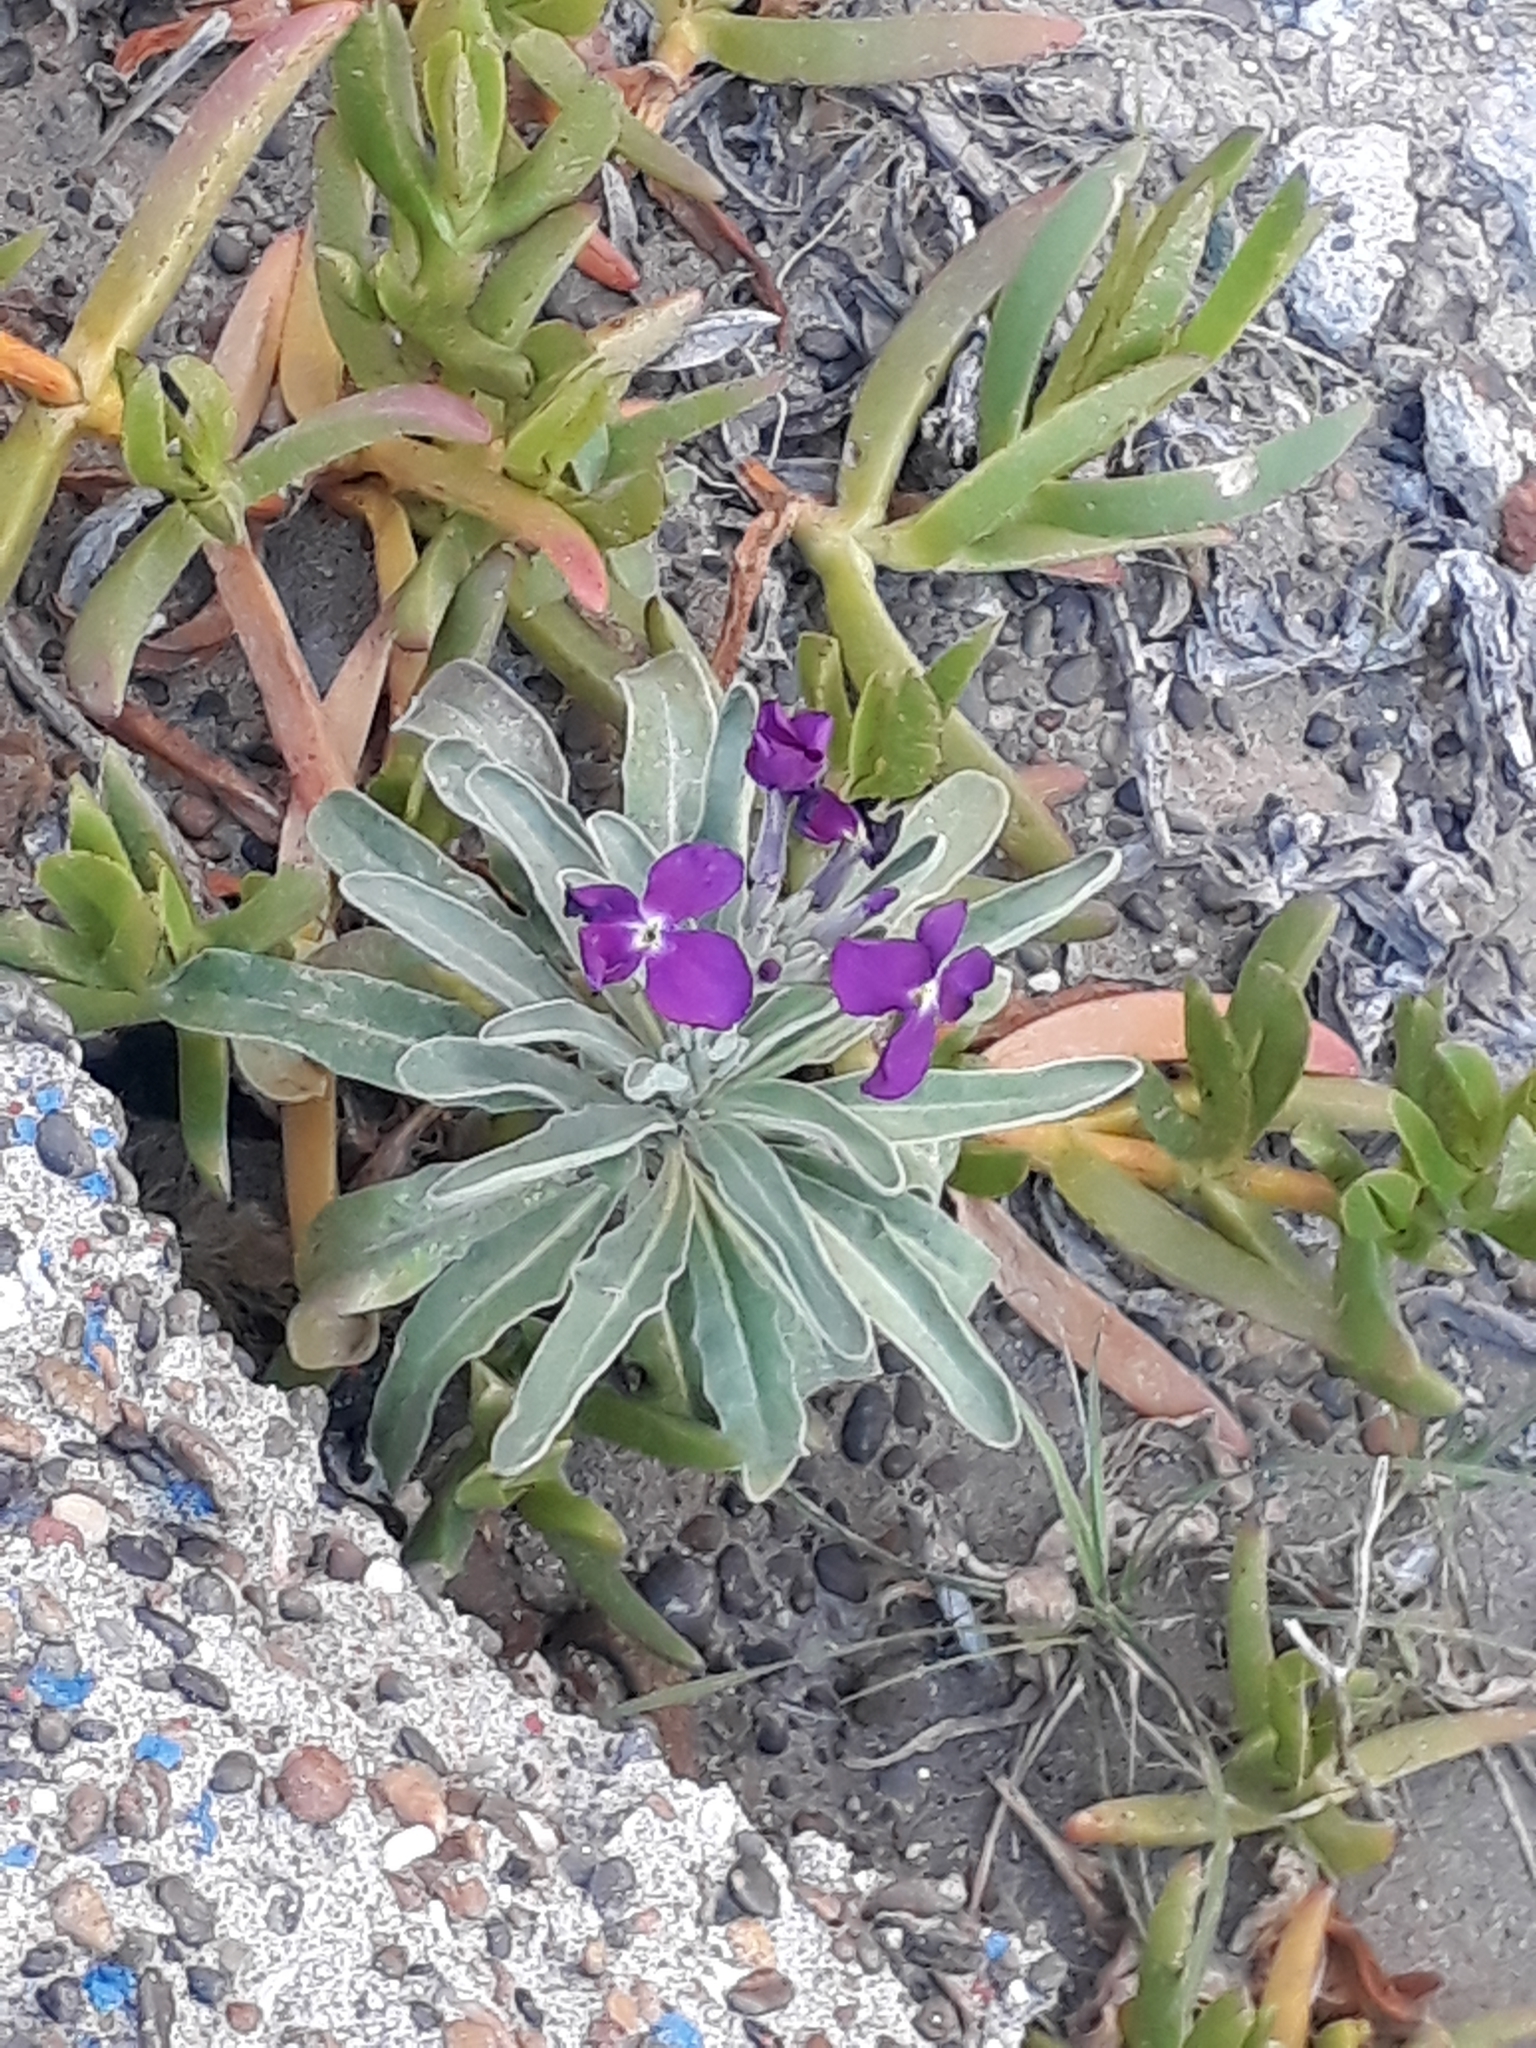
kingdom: Plantae
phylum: Tracheophyta
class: Magnoliopsida
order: Brassicales
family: Brassicaceae
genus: Matthiola
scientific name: Matthiola incana
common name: Hoary stock
